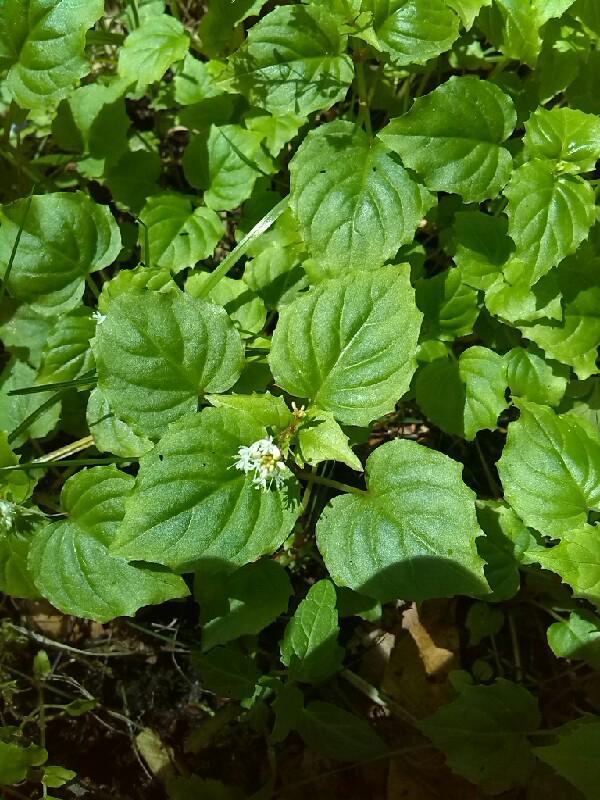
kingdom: Plantae
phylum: Tracheophyta
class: Magnoliopsida
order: Myrtales
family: Onagraceae
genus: Circaea
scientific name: Circaea alpina
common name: Alpine enchanter's-nightshade
